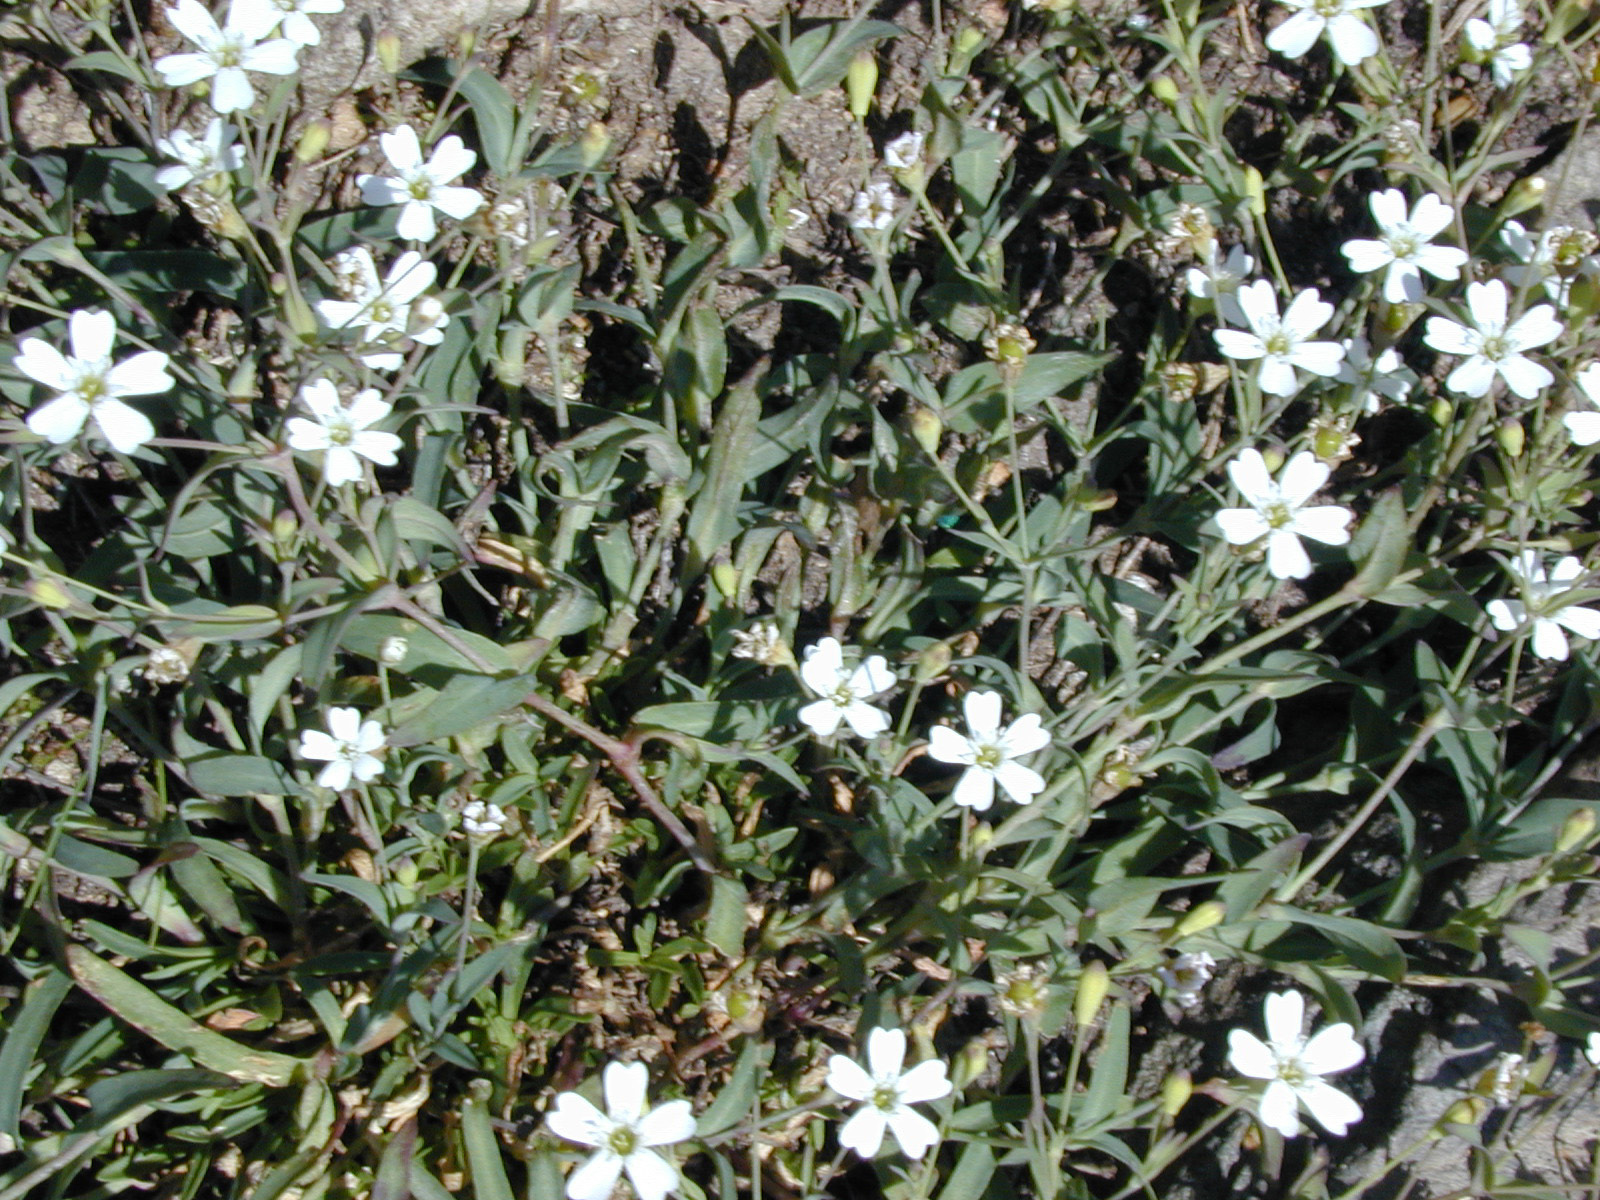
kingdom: Plantae
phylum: Tracheophyta
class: Magnoliopsida
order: Caryophyllales
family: Caryophyllaceae
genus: Atocion
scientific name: Atocion rupestre
